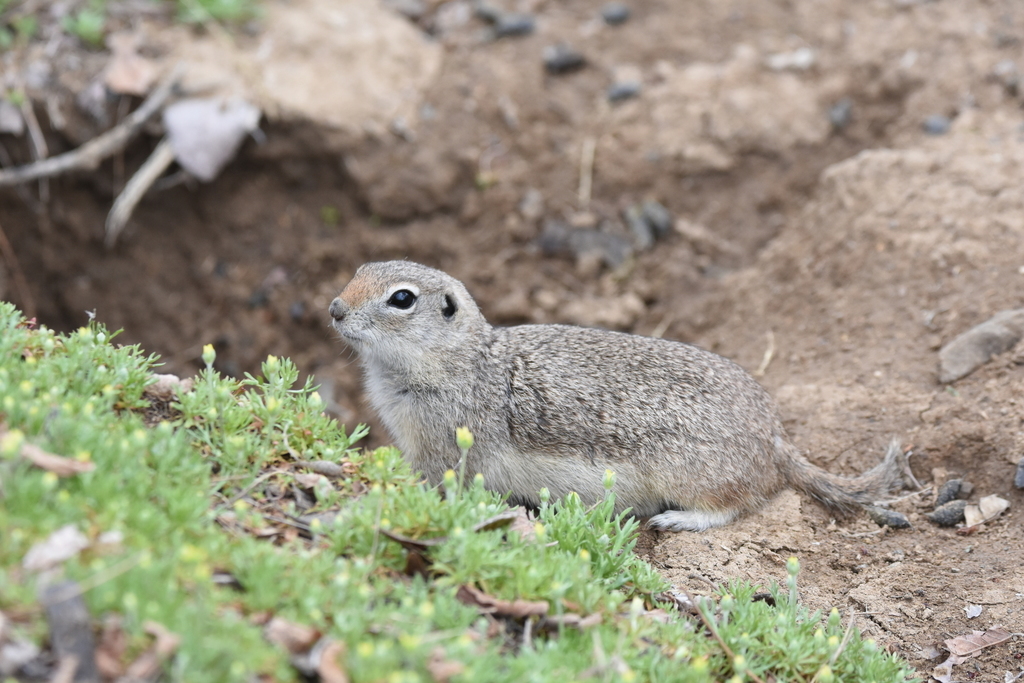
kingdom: Animalia
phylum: Chordata
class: Mammalia
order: Rodentia
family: Sciuridae
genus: Urocitellus
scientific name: Urocitellus canus
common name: Merriam's ground squirrel
